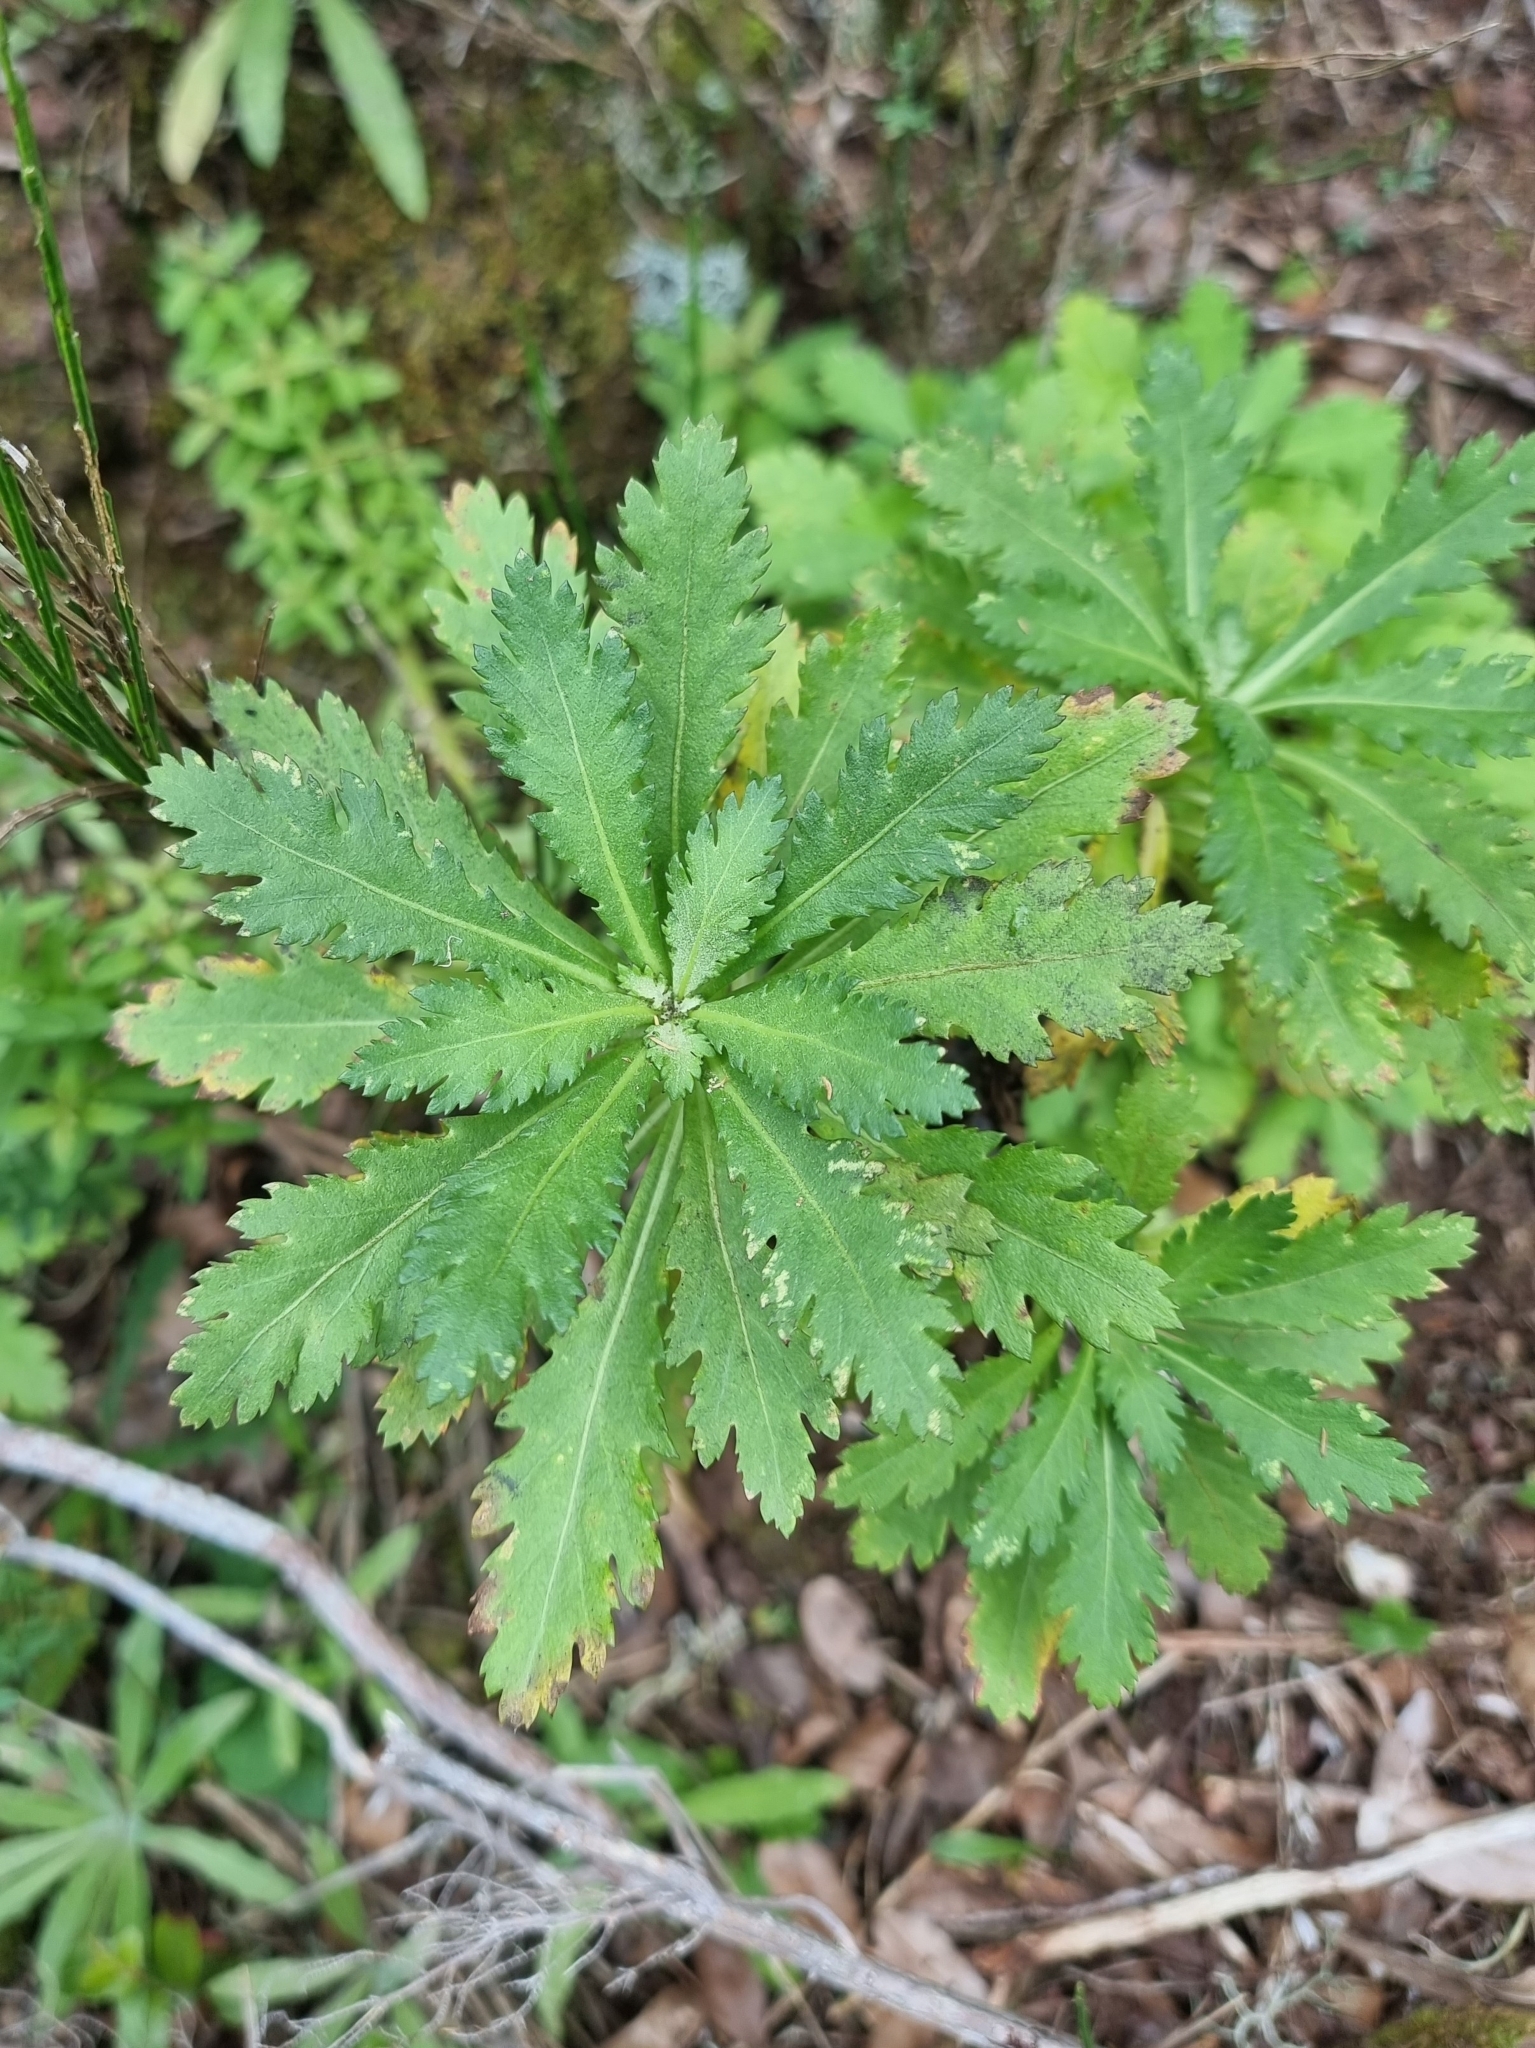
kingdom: Plantae
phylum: Tracheophyta
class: Magnoliopsida
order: Asterales
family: Asteraceae
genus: Argyranthemum
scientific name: Argyranthemum pinnatifidum
